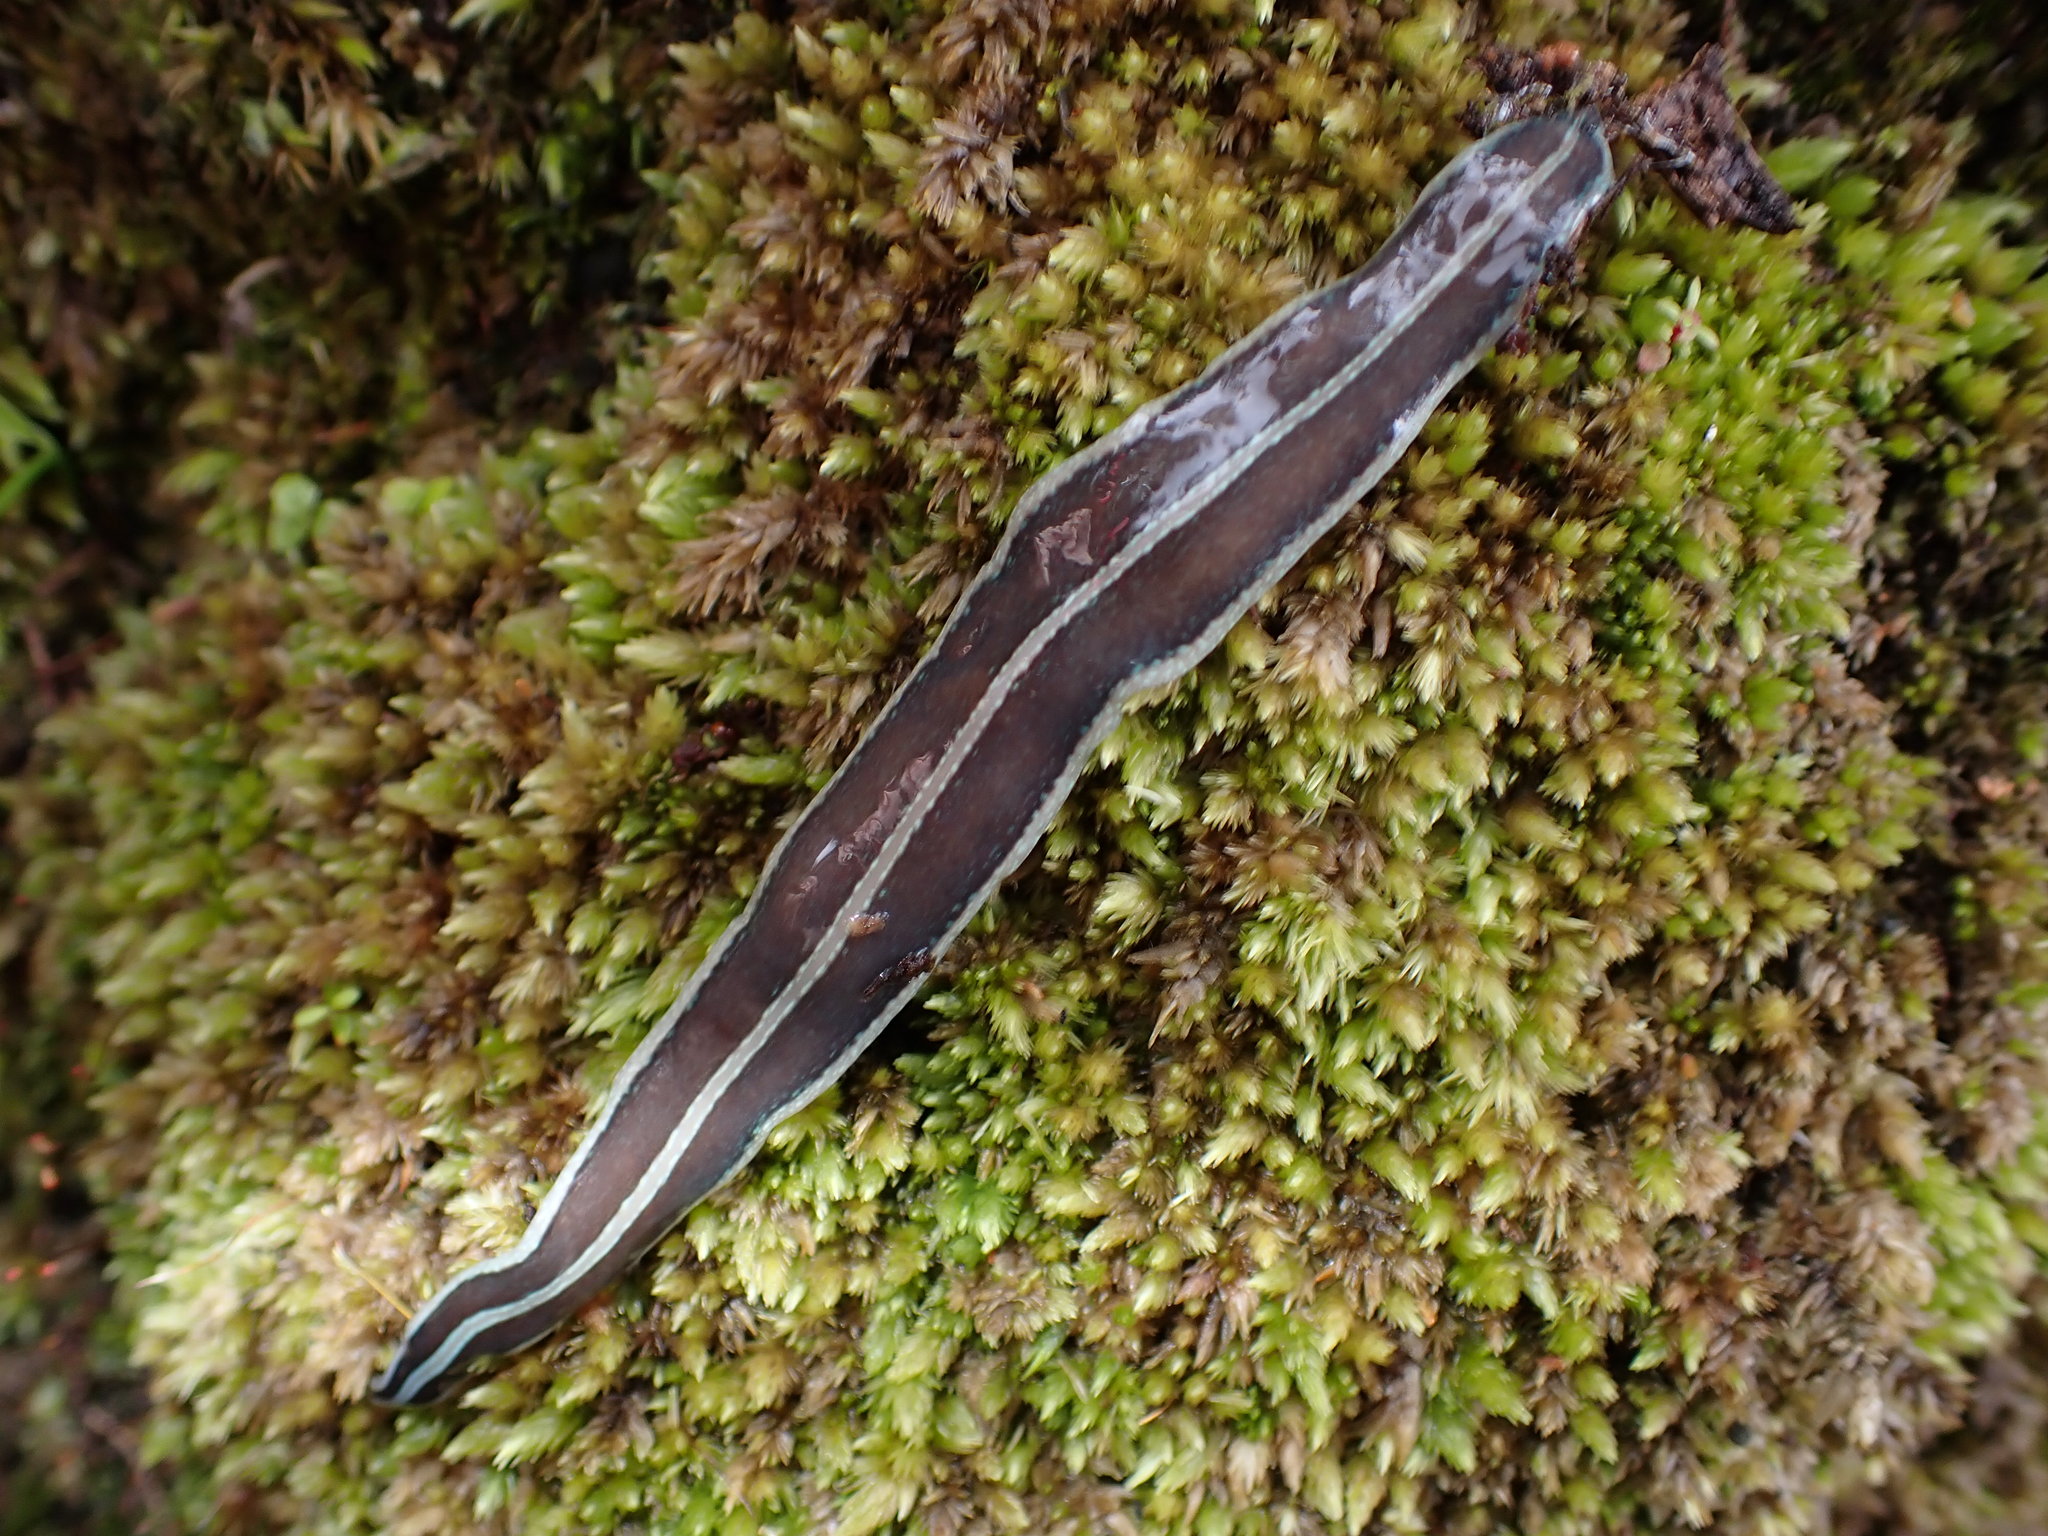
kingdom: Animalia
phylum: Platyhelminthes
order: Tricladida
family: Geoplanidae
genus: Australopacifica
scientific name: Australopacifica
